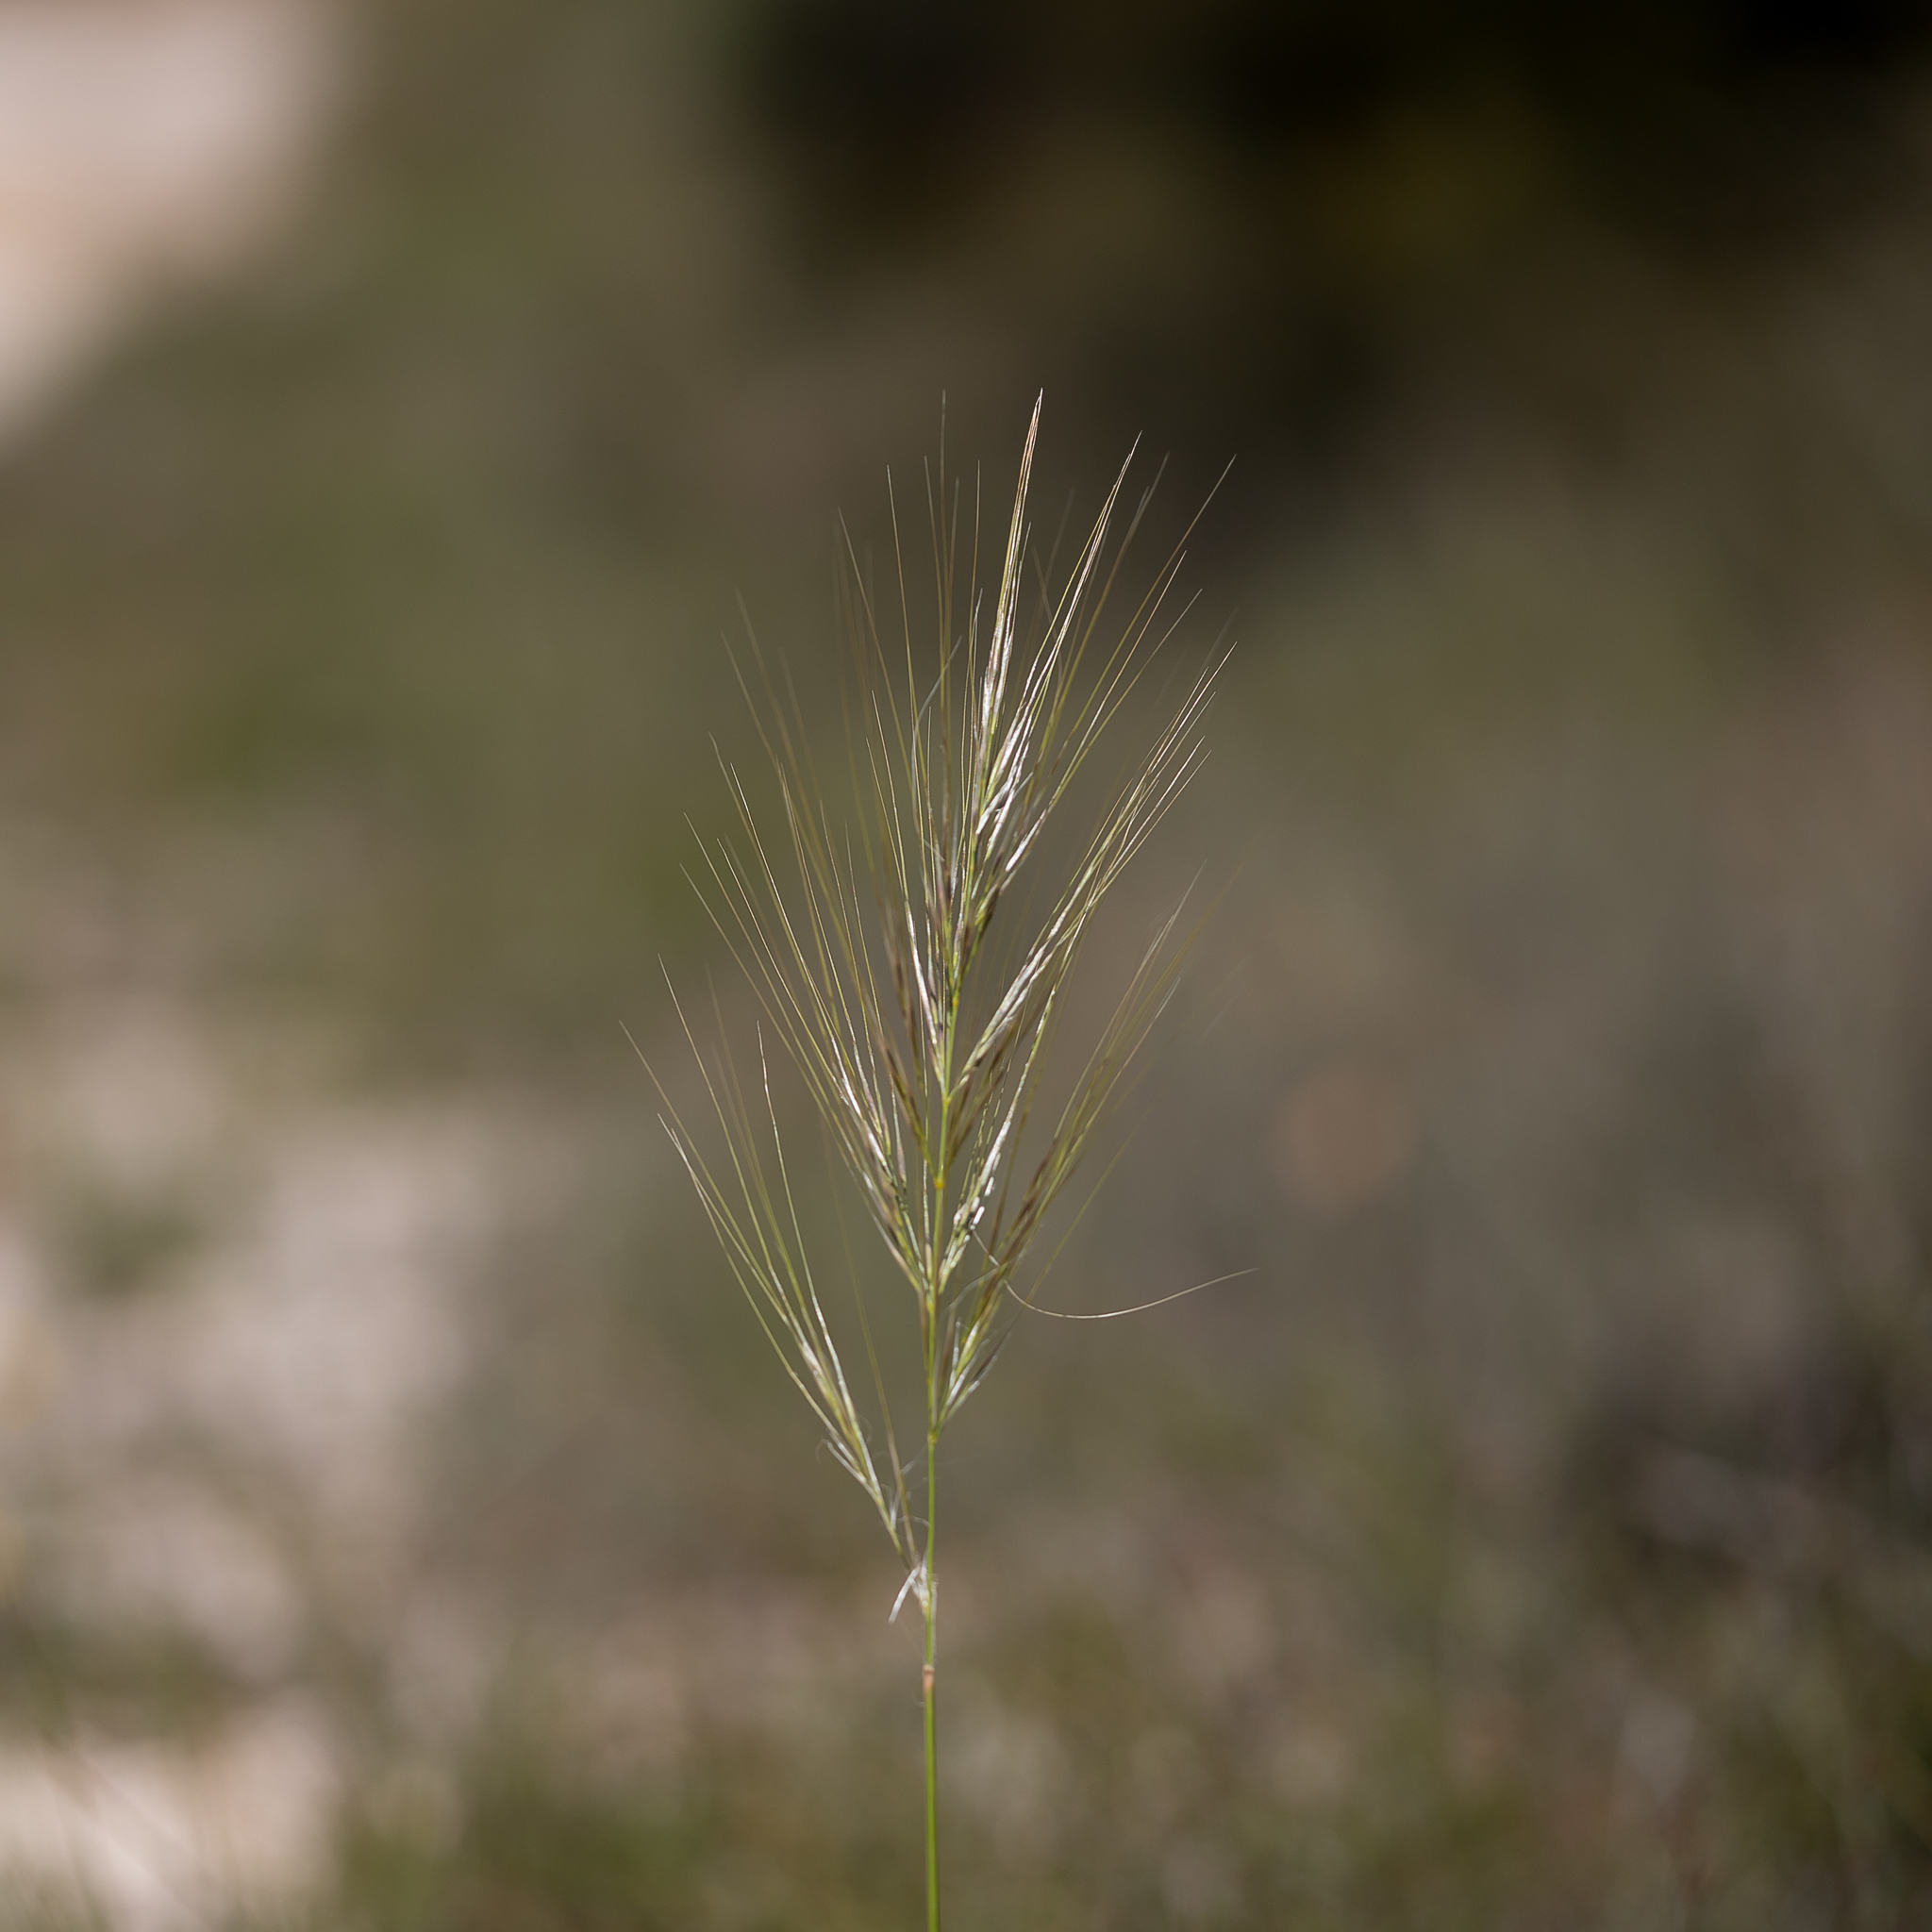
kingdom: Plantae
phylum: Tracheophyta
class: Liliopsida
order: Poales
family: Poaceae
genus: Austrostipa
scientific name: Austrostipa mollis
